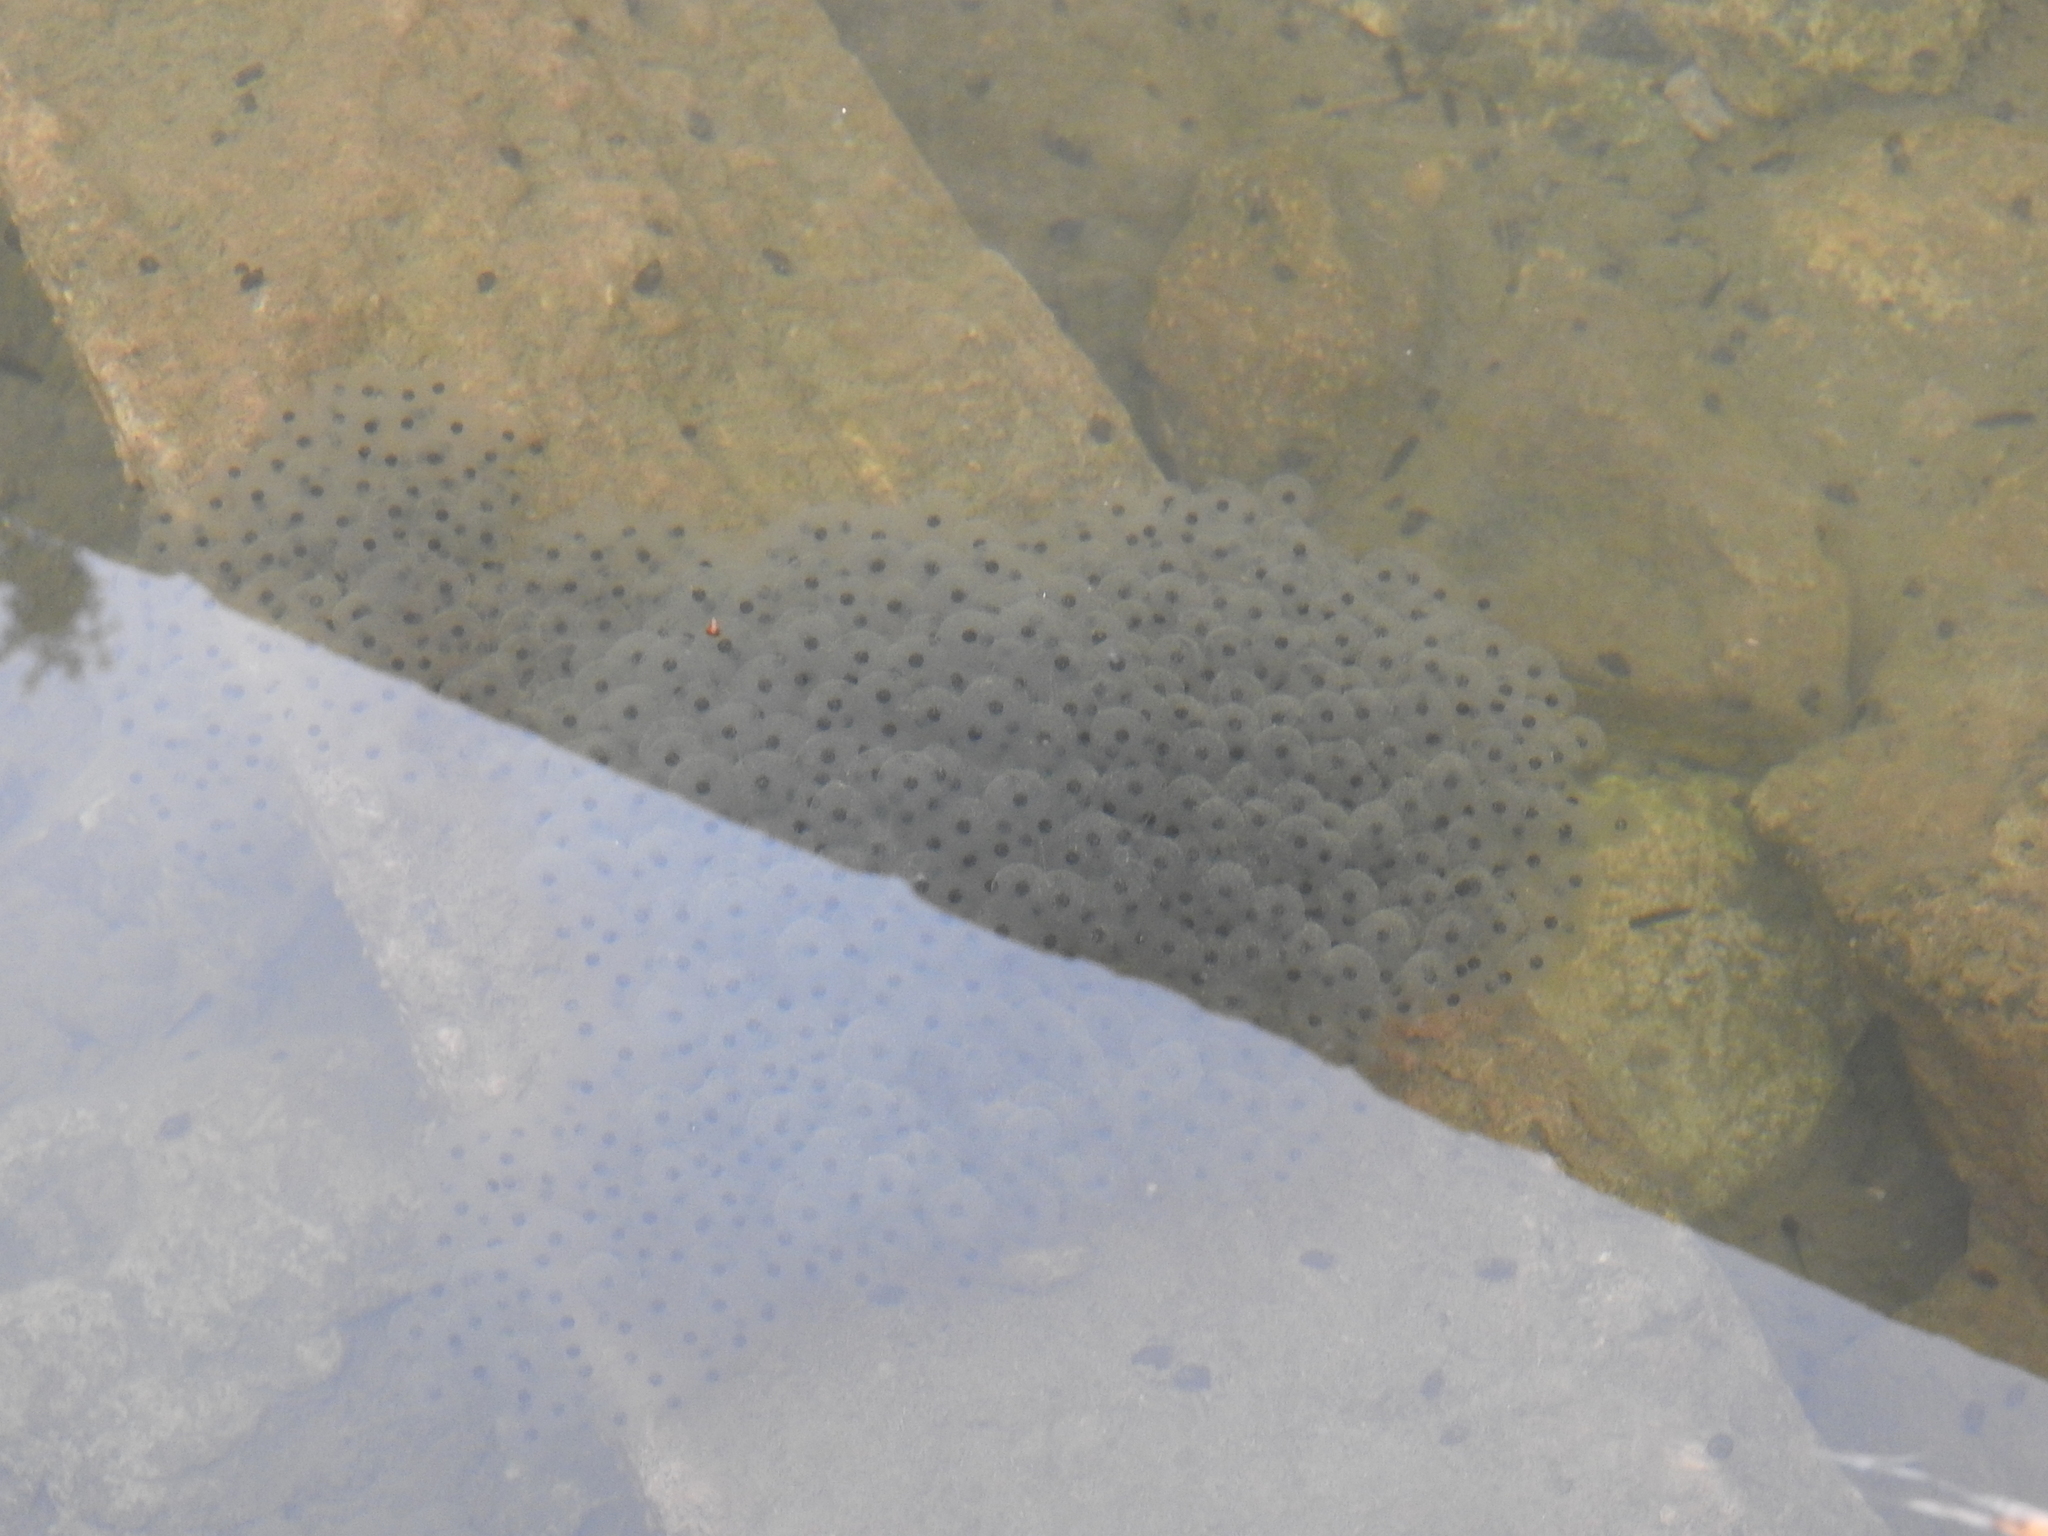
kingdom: Animalia
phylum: Chordata
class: Amphibia
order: Anura
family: Ranidae
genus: Rana
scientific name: Rana temporaria
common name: Common frog
